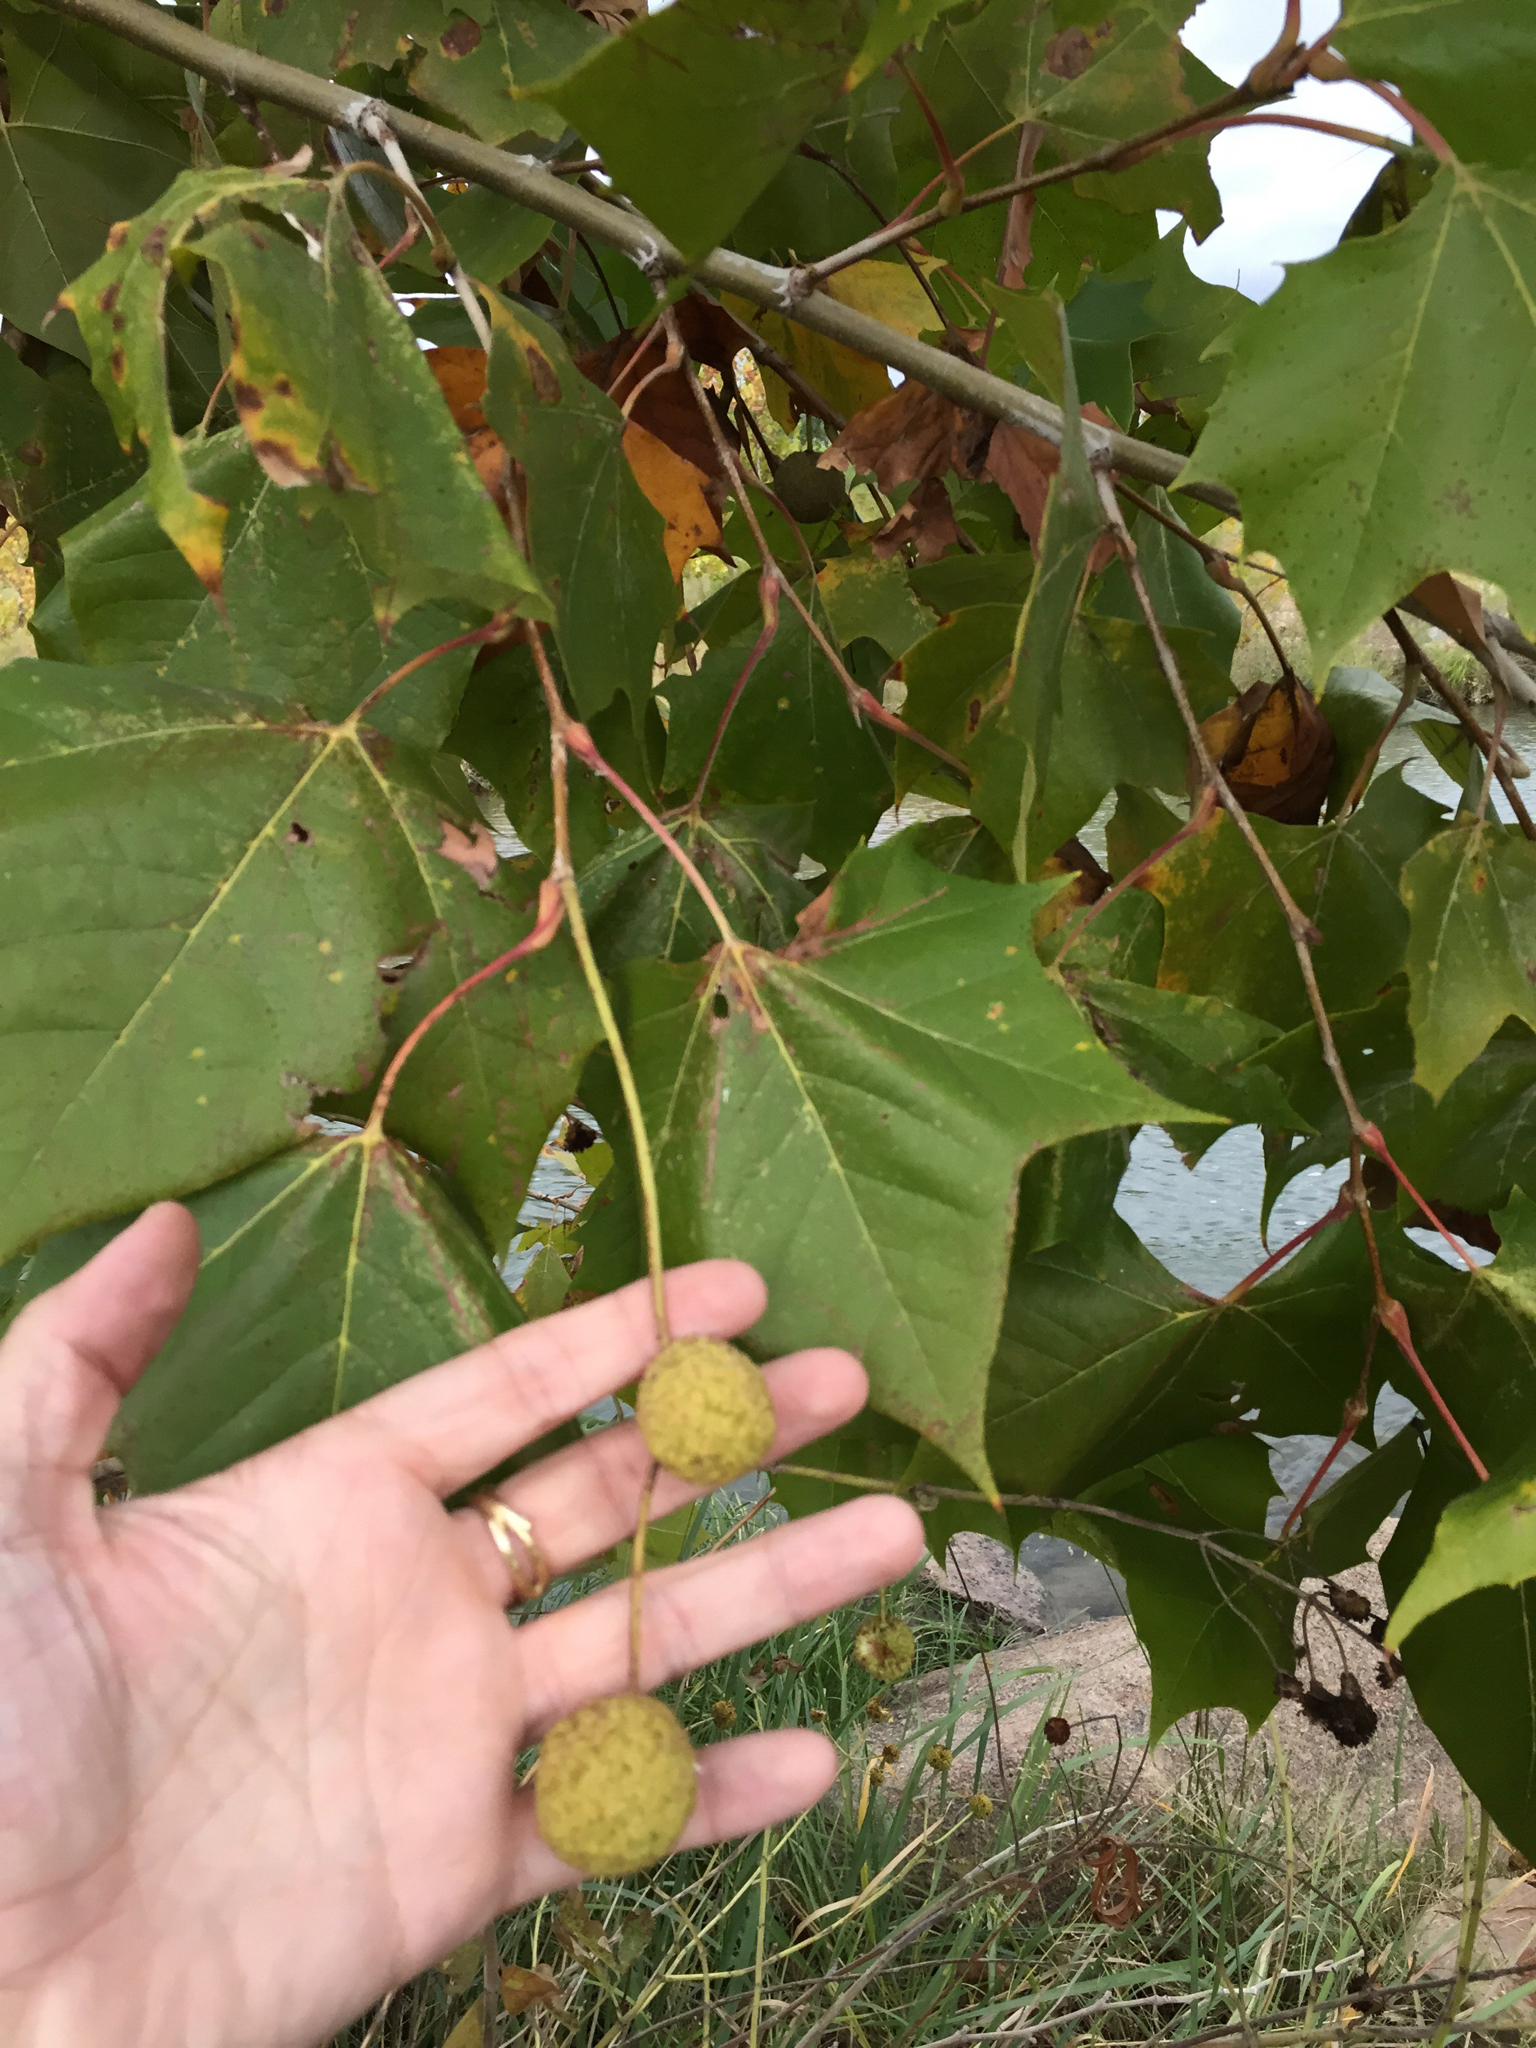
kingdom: Plantae
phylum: Tracheophyta
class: Magnoliopsida
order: Proteales
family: Platanaceae
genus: Platanus
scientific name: Platanus occidentalis
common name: American sycamore
